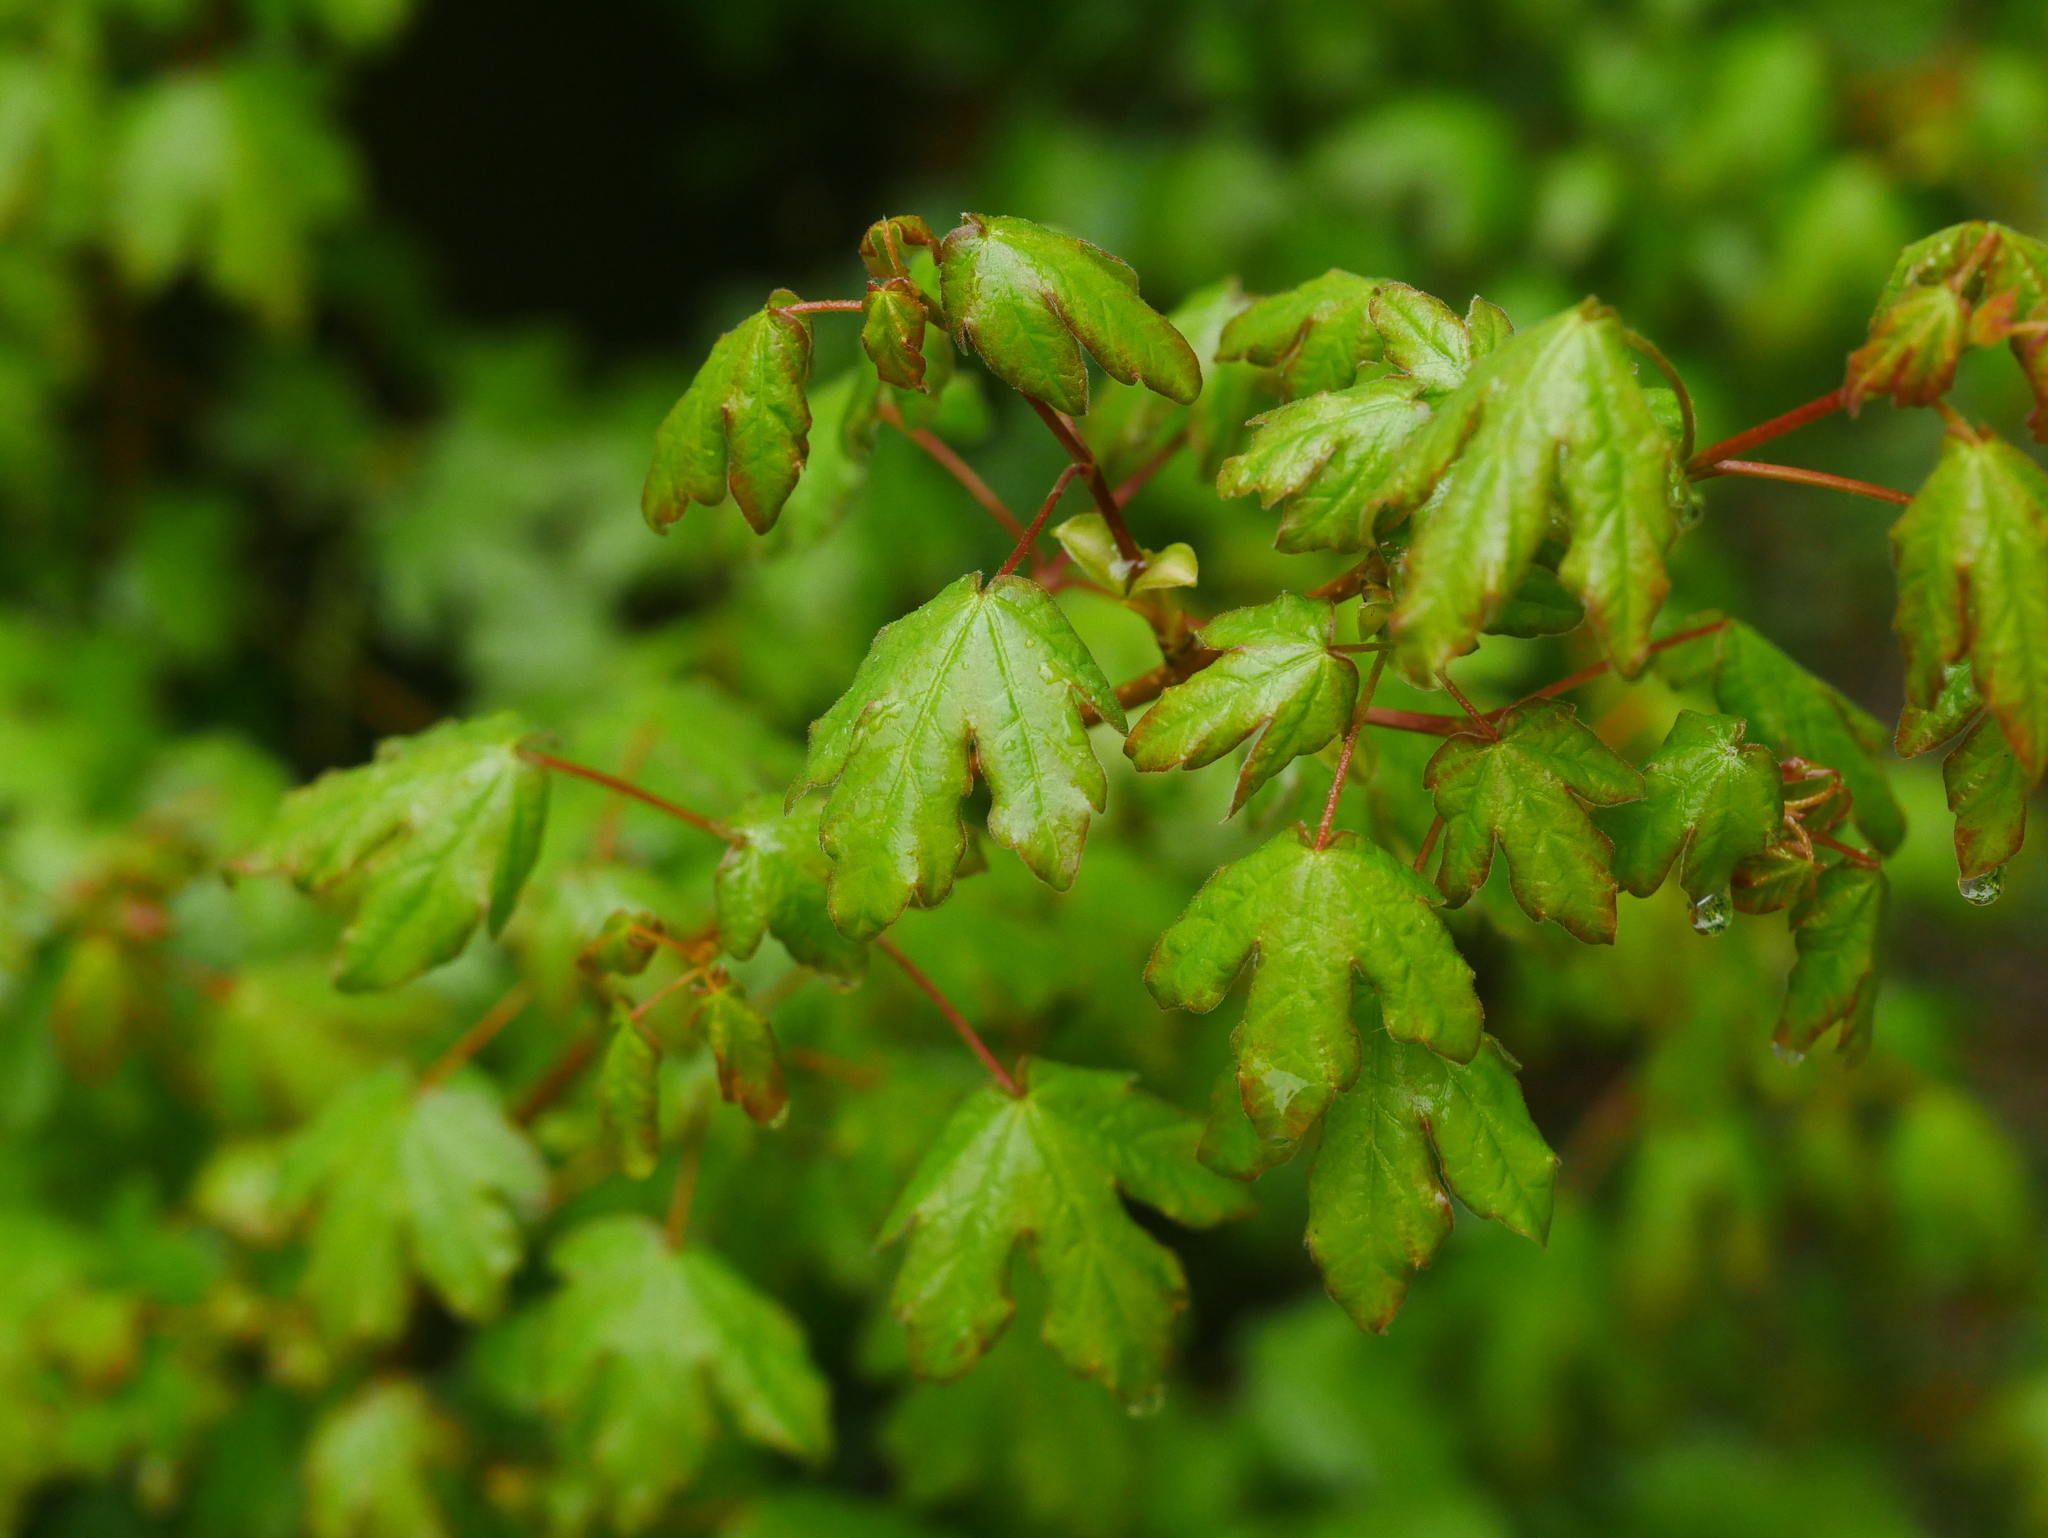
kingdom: Plantae
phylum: Tracheophyta
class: Magnoliopsida
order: Sapindales
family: Sapindaceae
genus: Acer
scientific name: Acer campestre
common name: Field maple
